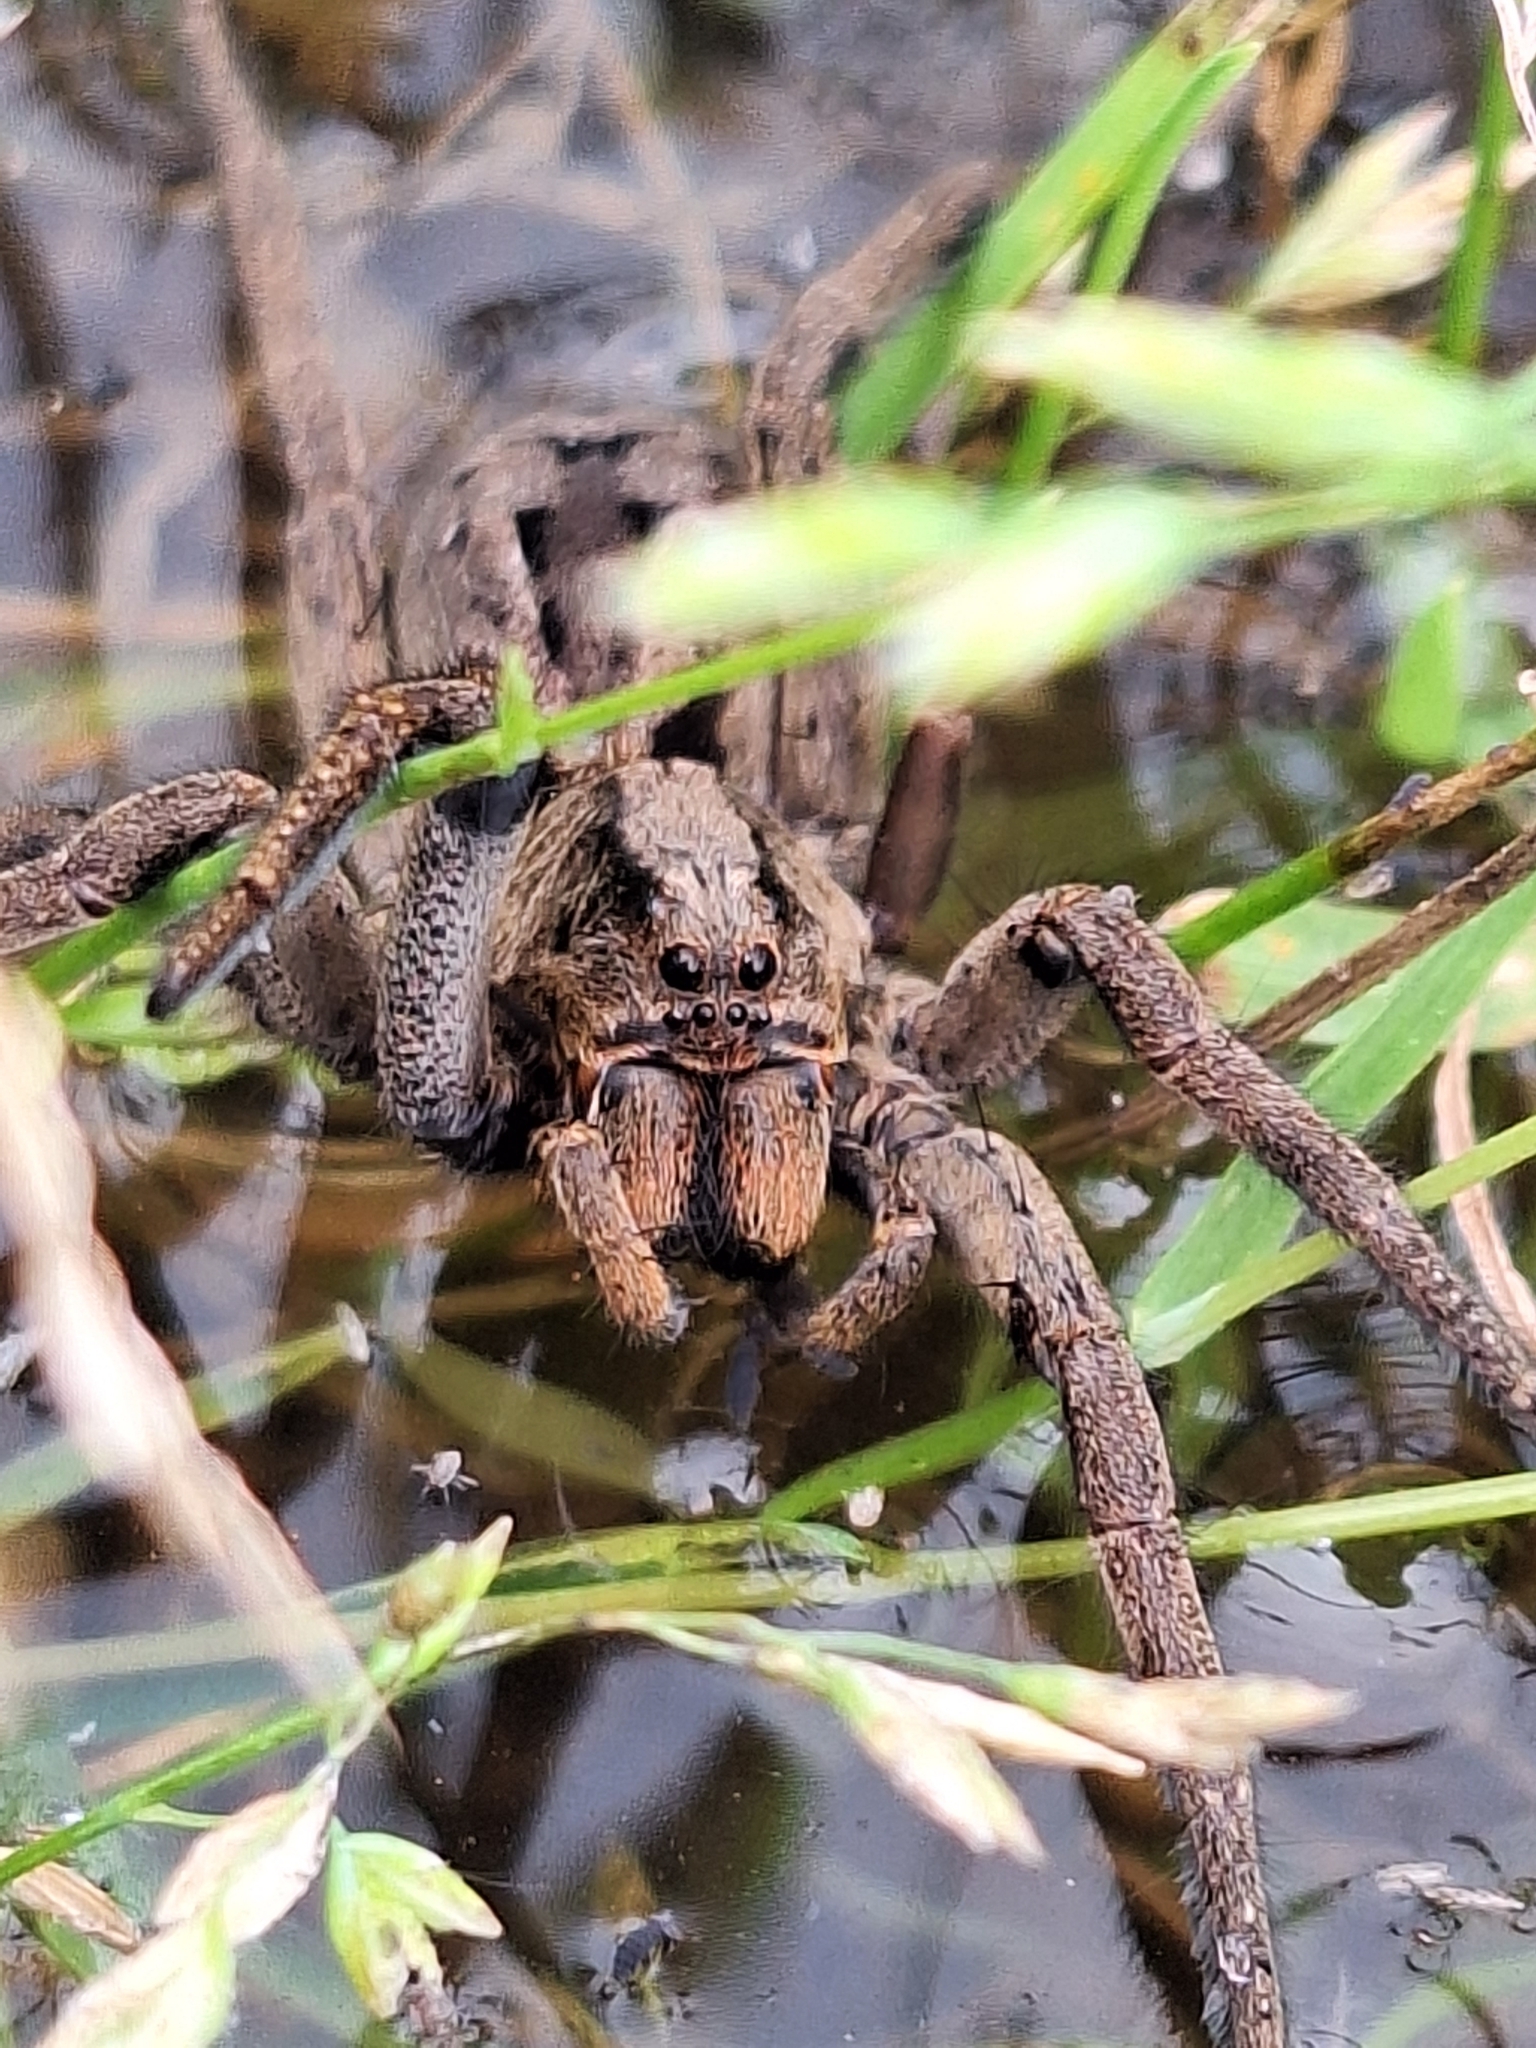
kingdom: Animalia
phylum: Arthropoda
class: Arachnida
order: Araneae
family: Lycosidae
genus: Lycosa
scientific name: Lycosa erythrognatha
